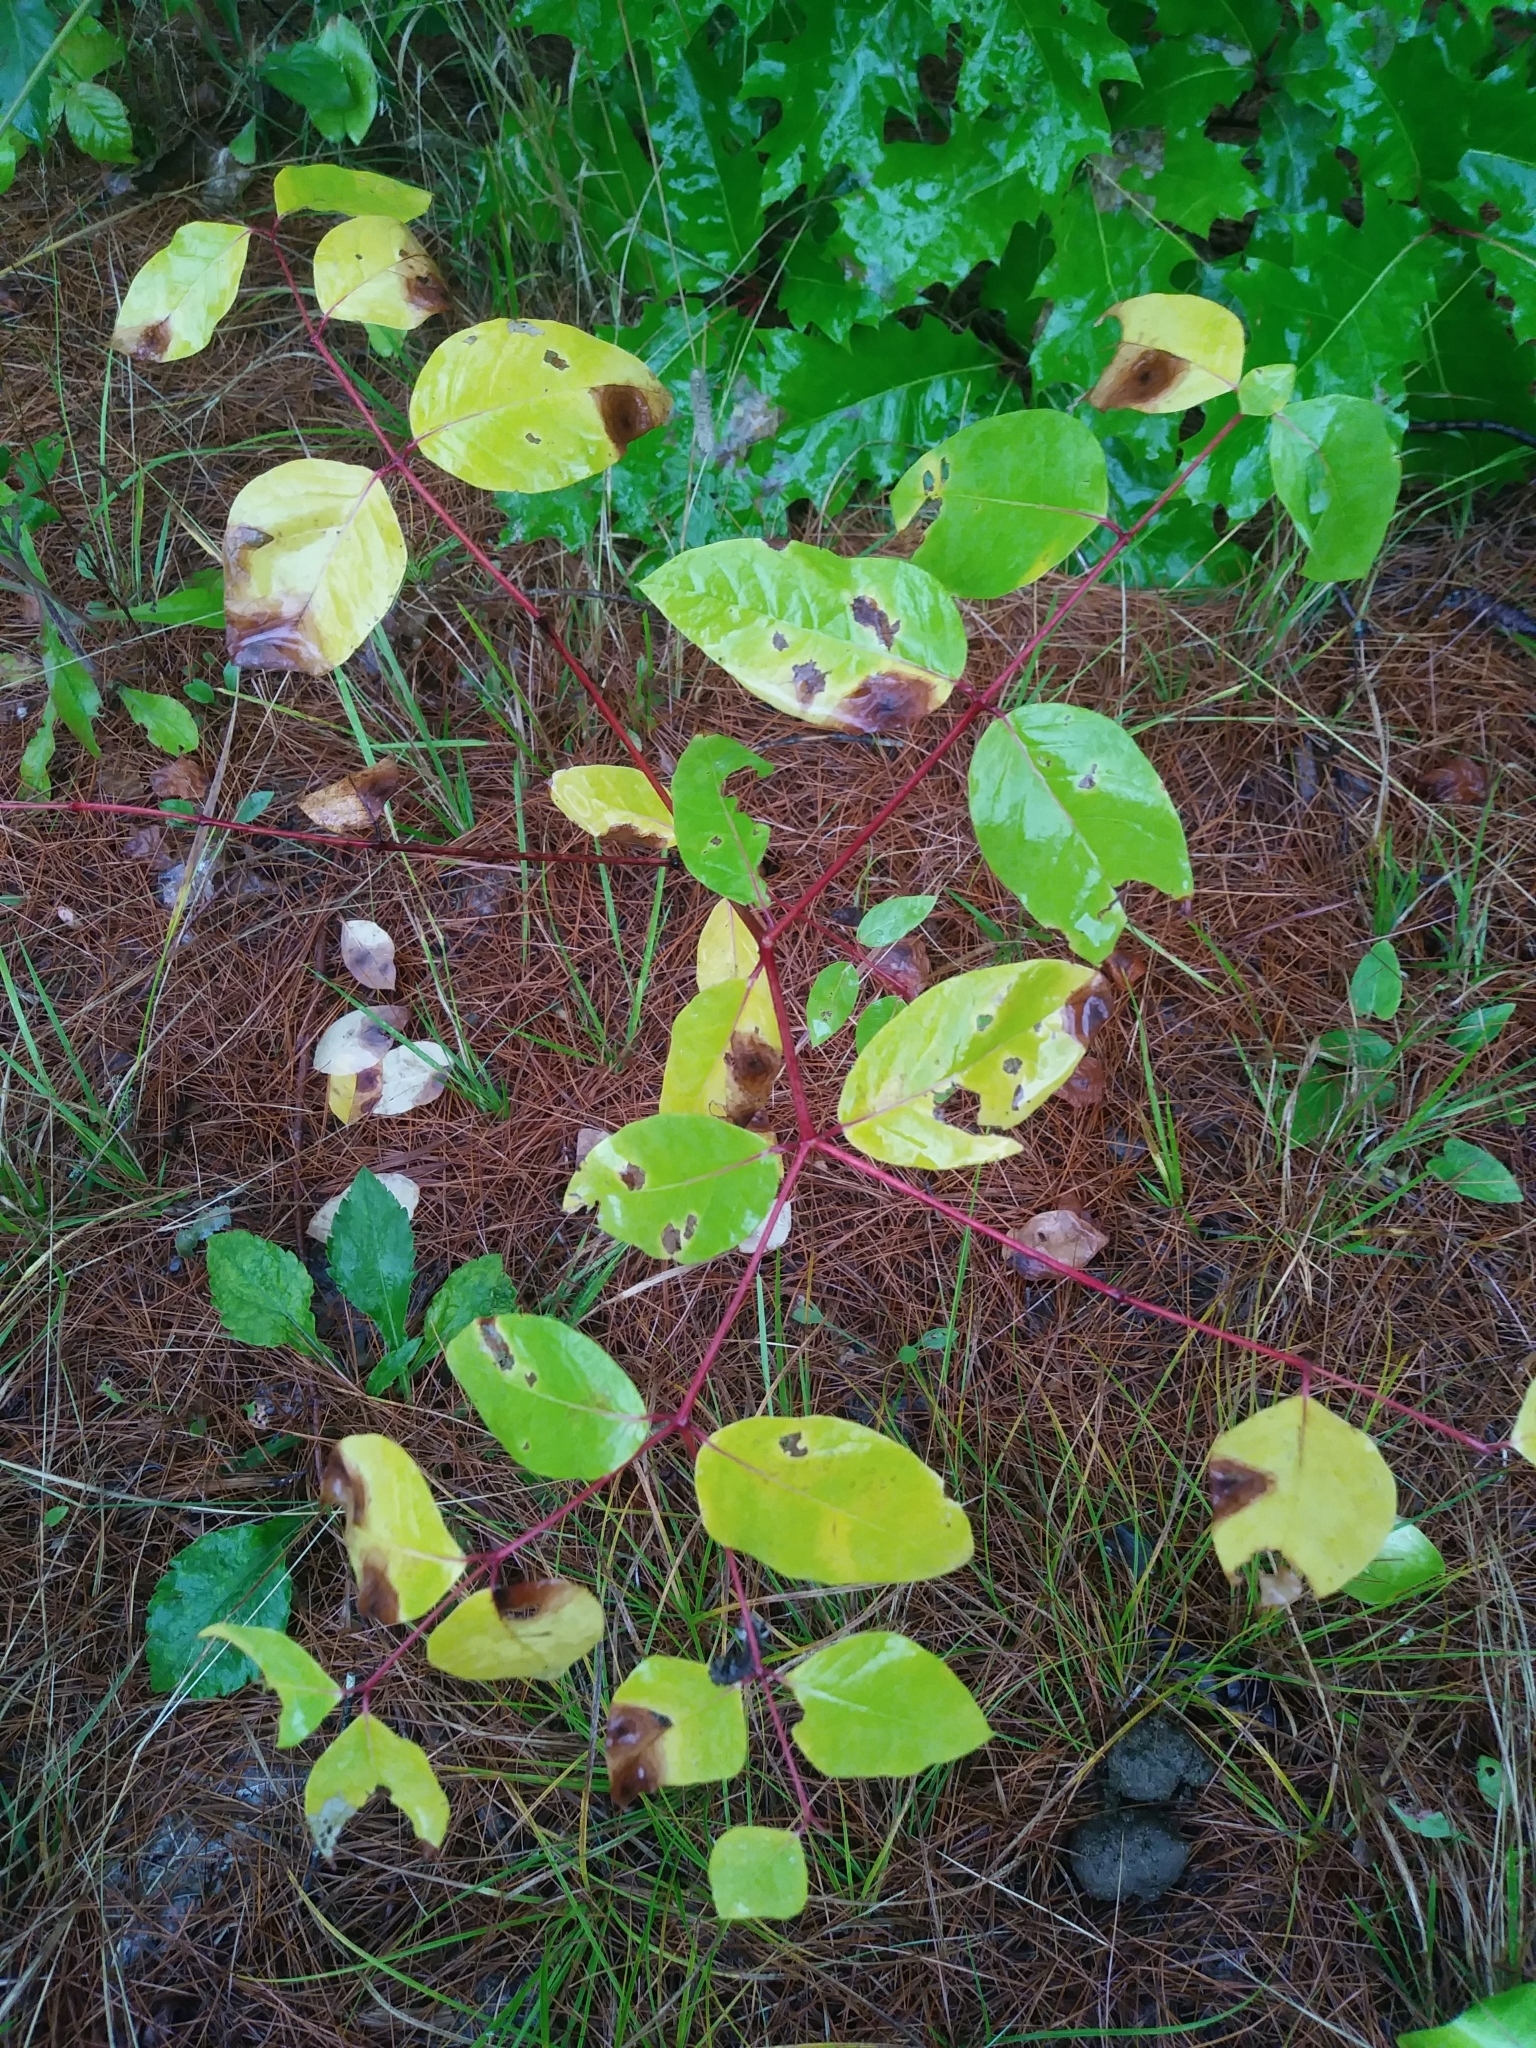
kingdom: Plantae
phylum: Tracheophyta
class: Magnoliopsida
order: Gentianales
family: Apocynaceae
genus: Apocynum
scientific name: Apocynum androsaemifolium
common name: Spreading dogbane
